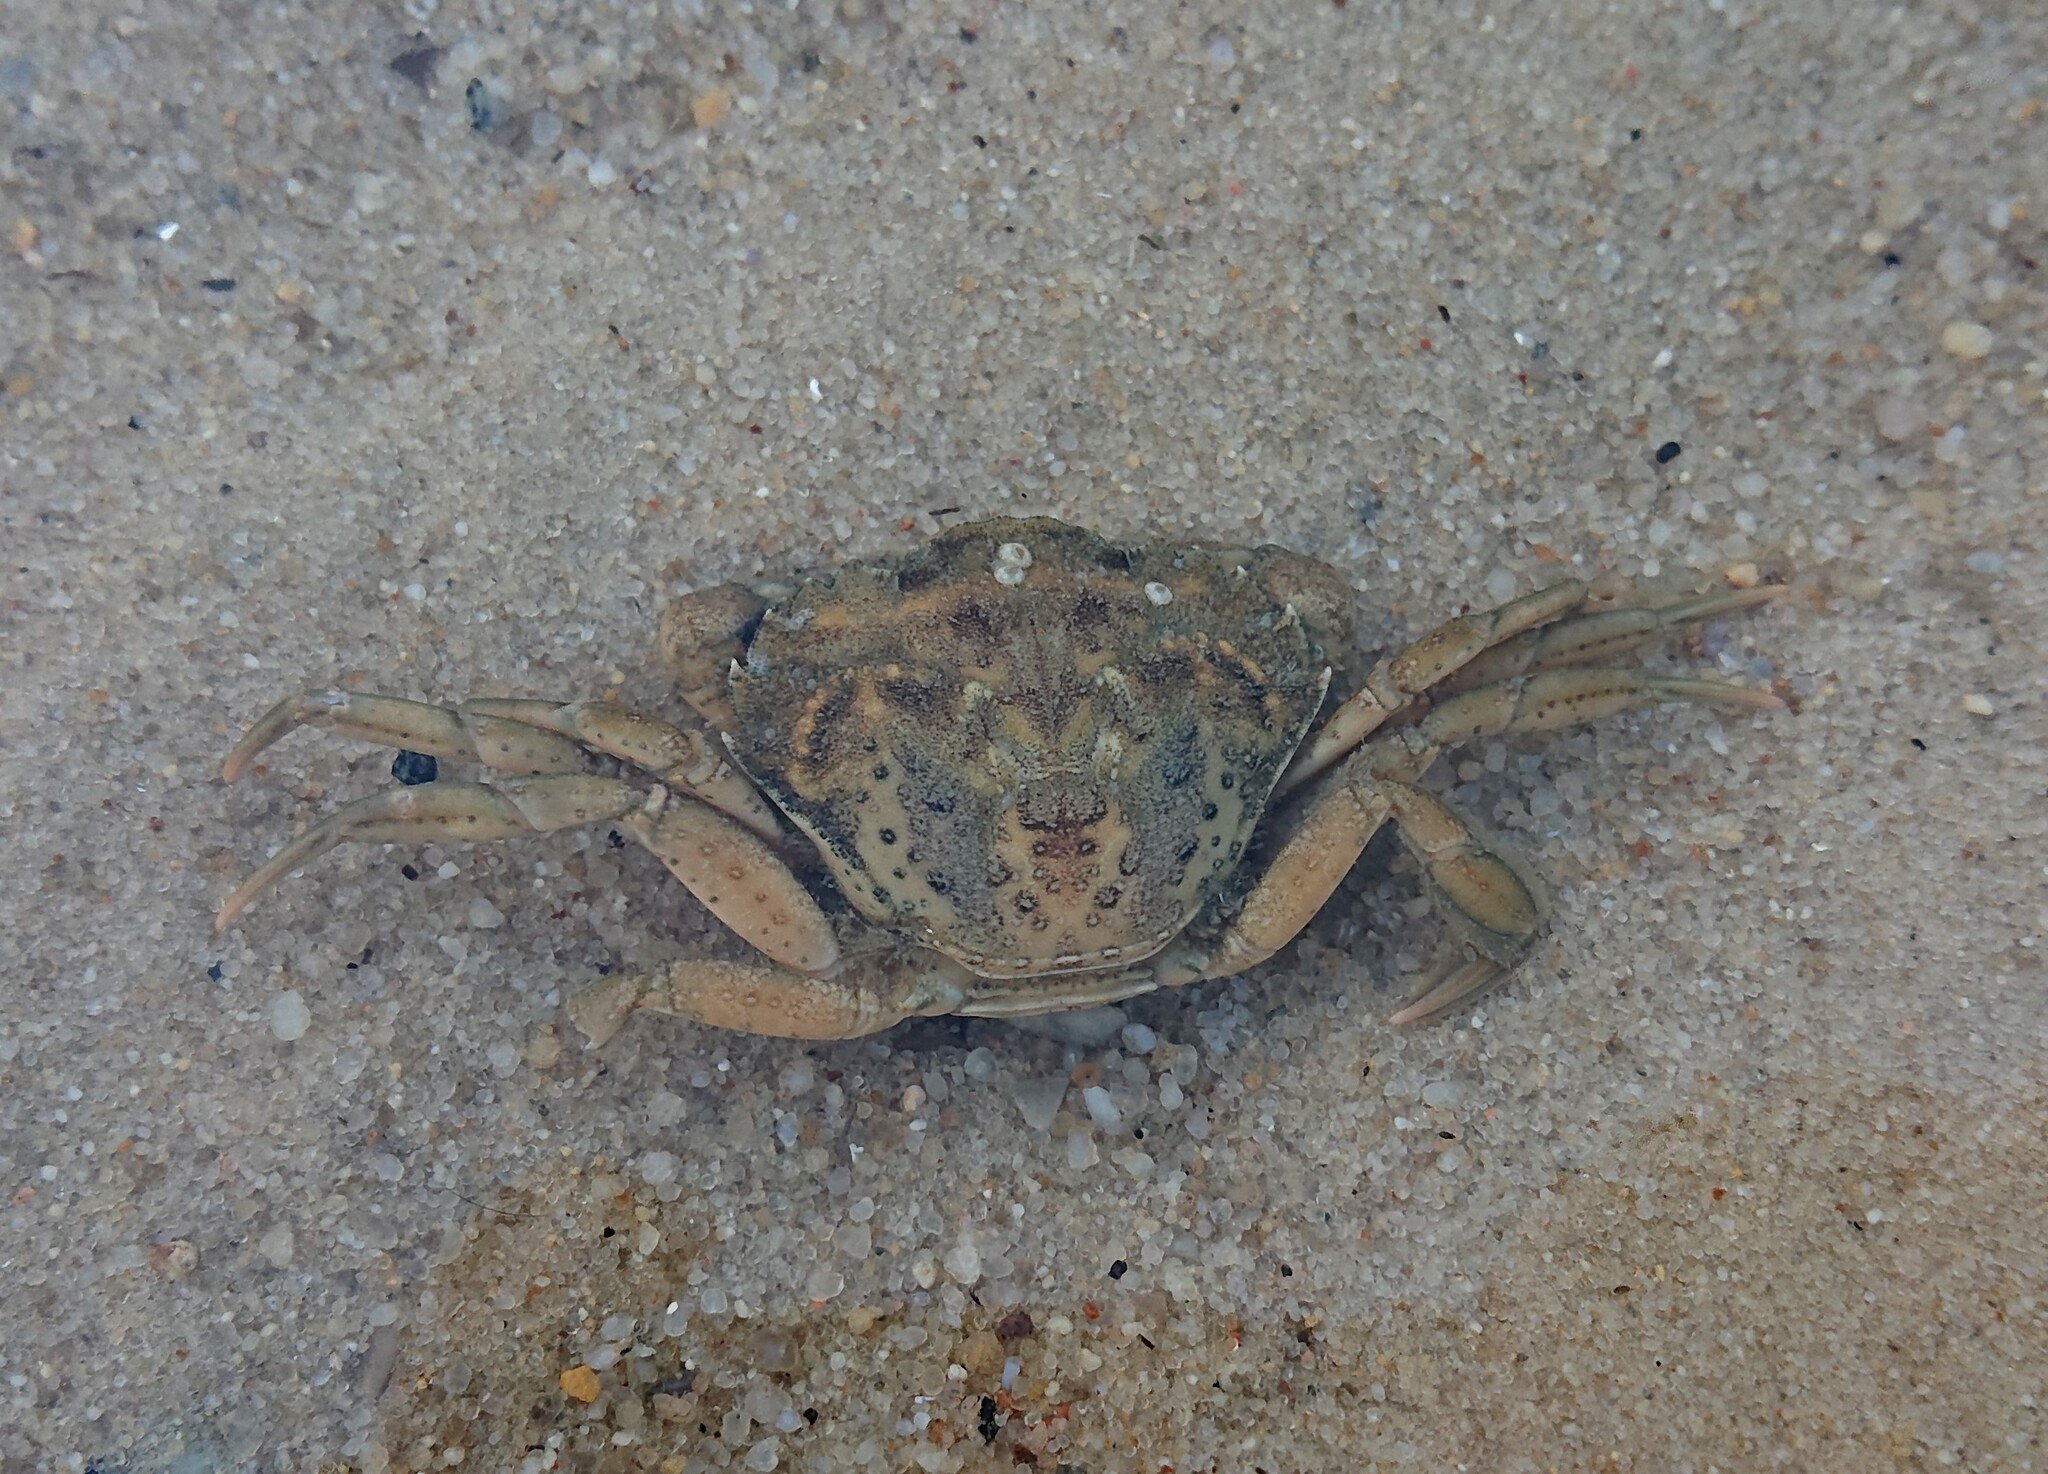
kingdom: Animalia
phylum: Arthropoda
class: Malacostraca
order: Decapoda
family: Carcinidae
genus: Carcinus
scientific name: Carcinus maenas
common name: European green crab
